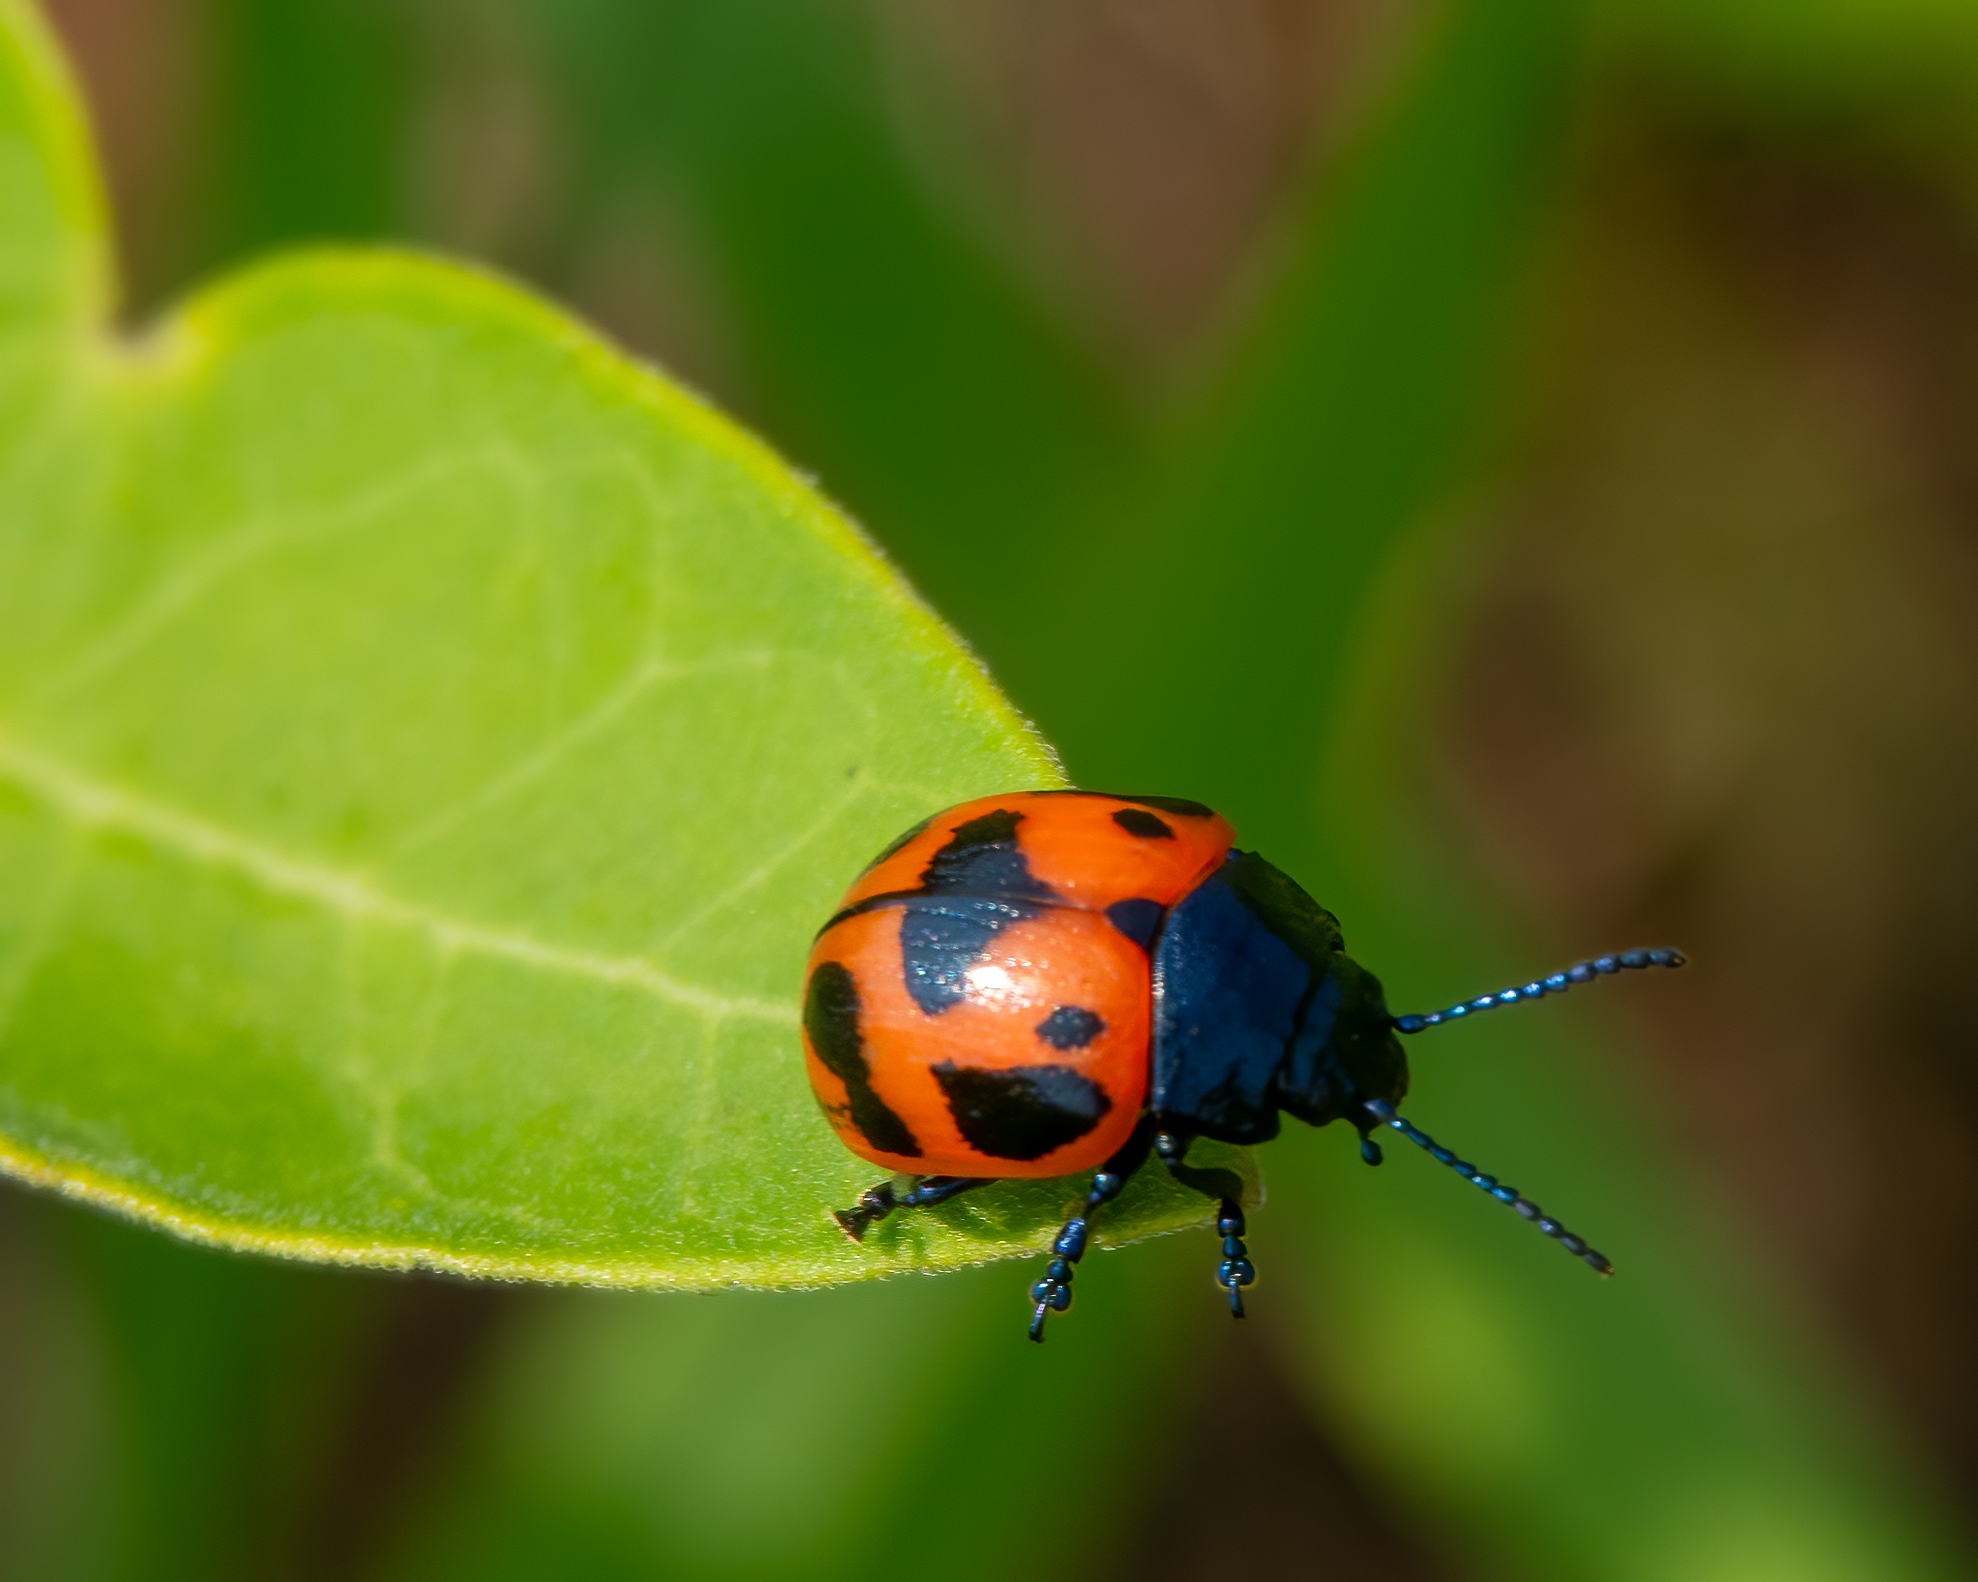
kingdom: Animalia
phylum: Arthropoda
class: Insecta
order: Coleoptera
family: Chrysomelidae
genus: Labidomera
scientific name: Labidomera clivicollis
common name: Swamp milkweed leaf beetle
